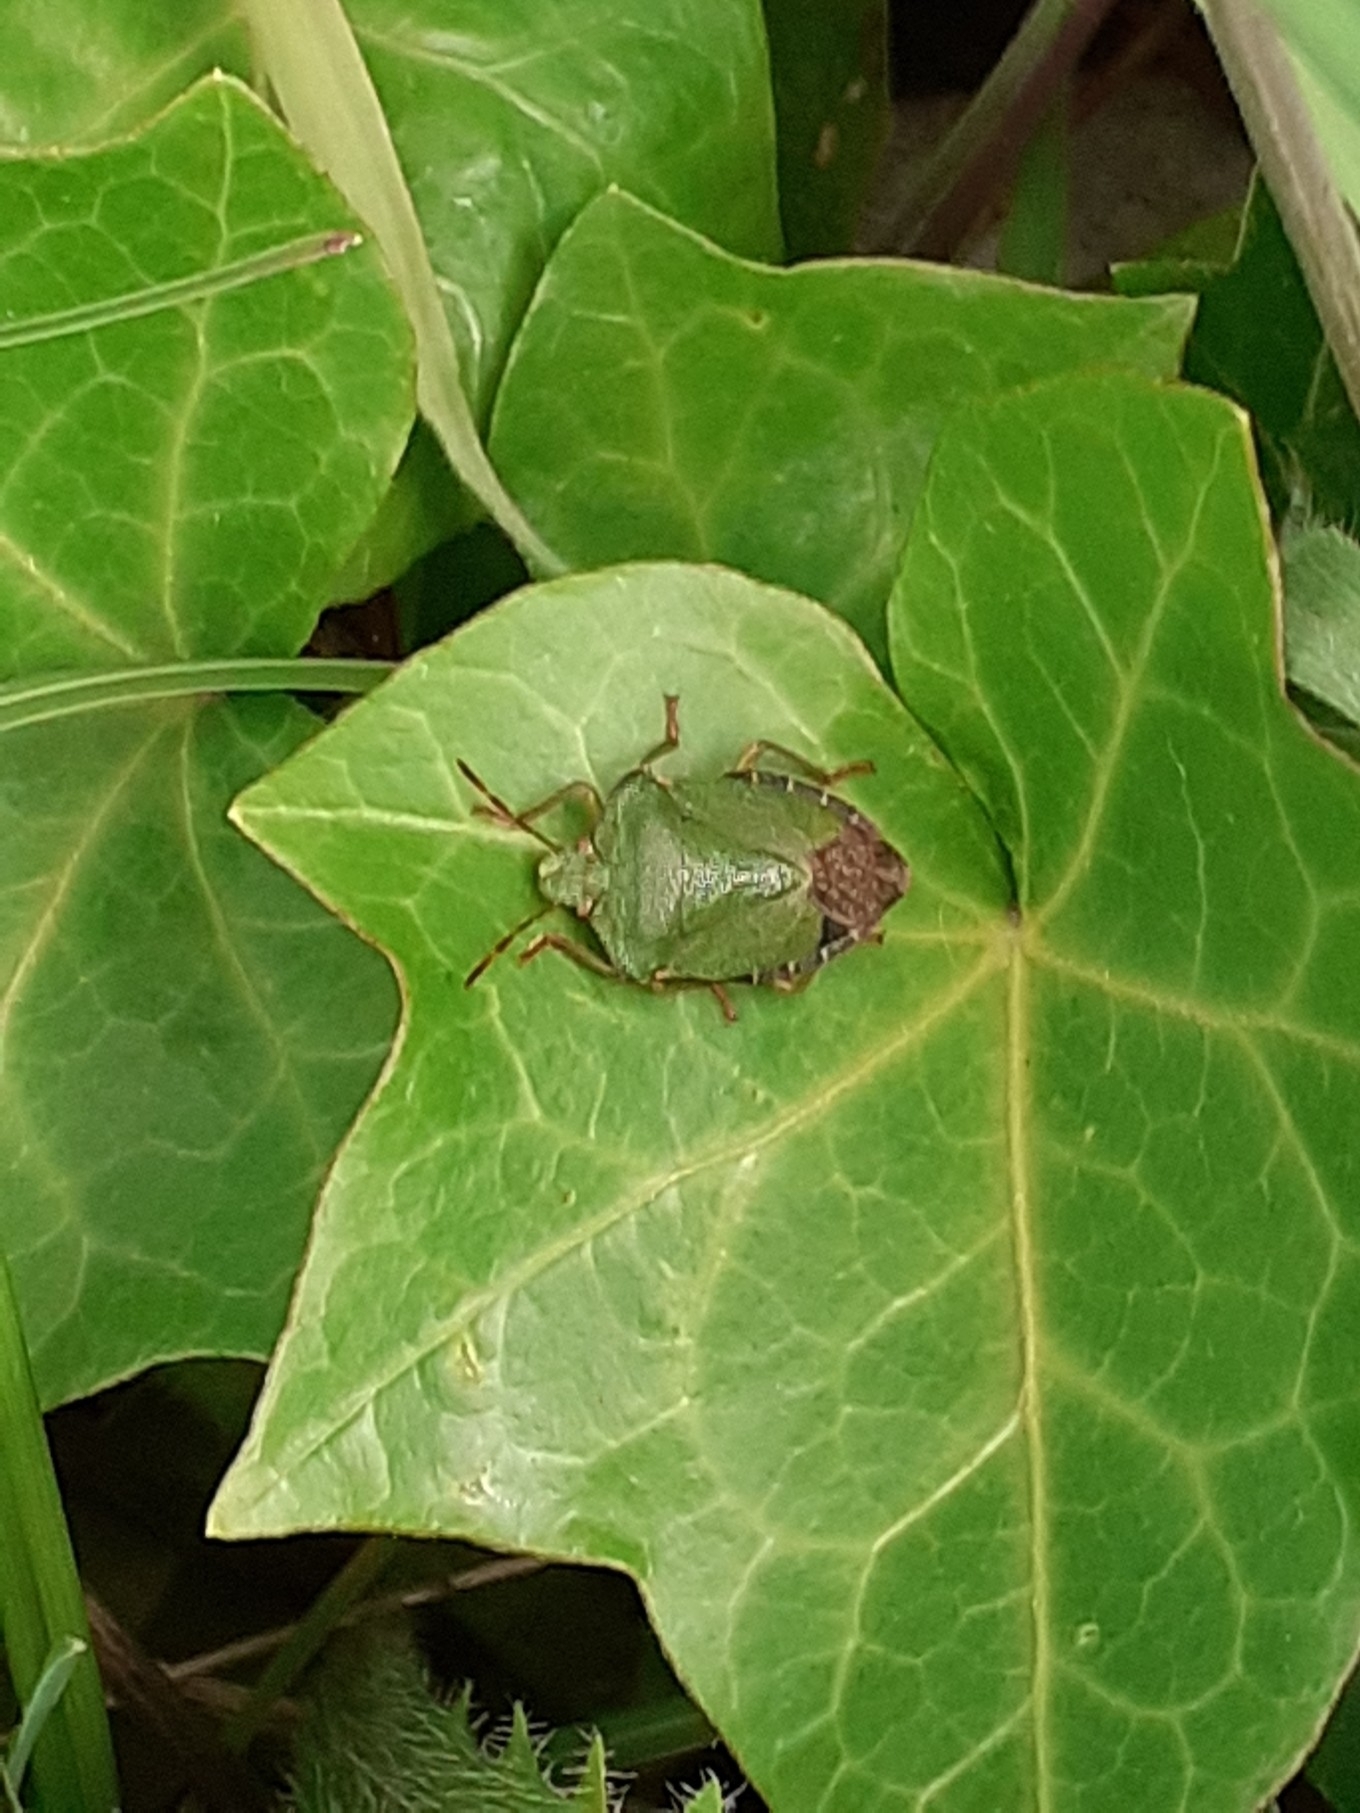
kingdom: Animalia
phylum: Arthropoda
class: Insecta
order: Hemiptera
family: Pentatomidae
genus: Palomena
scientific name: Palomena prasina
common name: Green shieldbug
